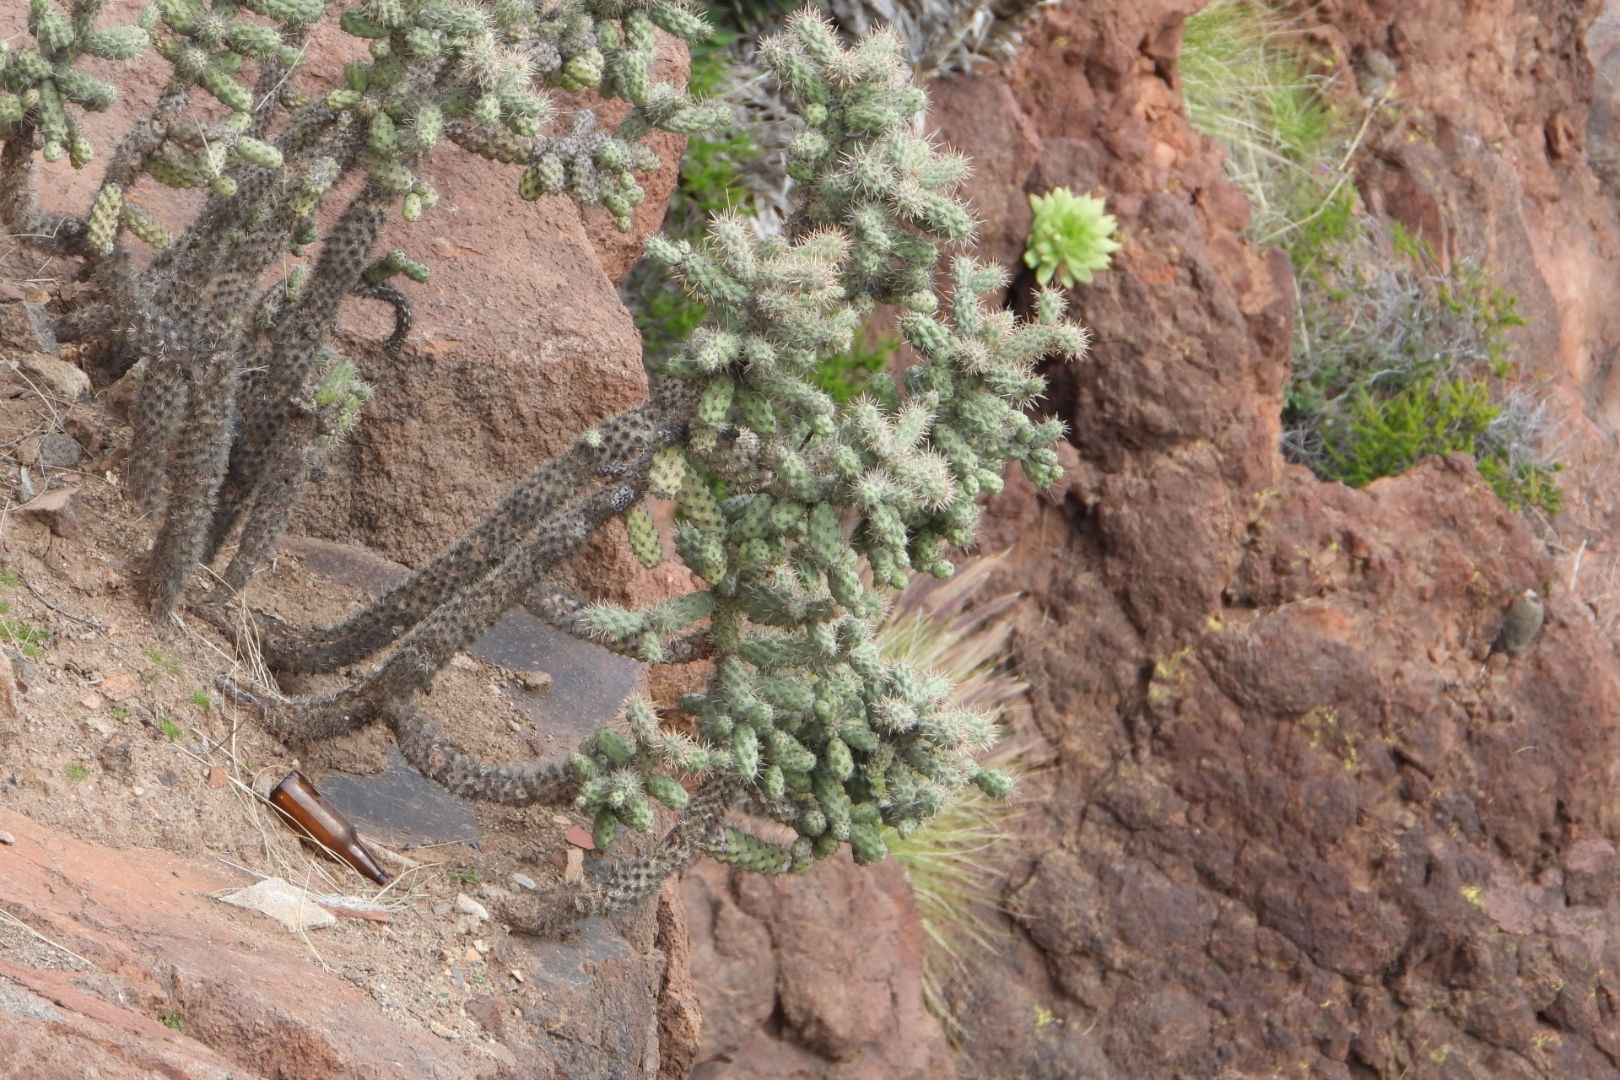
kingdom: Plantae
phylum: Tracheophyta
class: Magnoliopsida
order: Caryophyllales
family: Cactaceae
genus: Cylindropuntia
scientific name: Cylindropuntia prolifera
